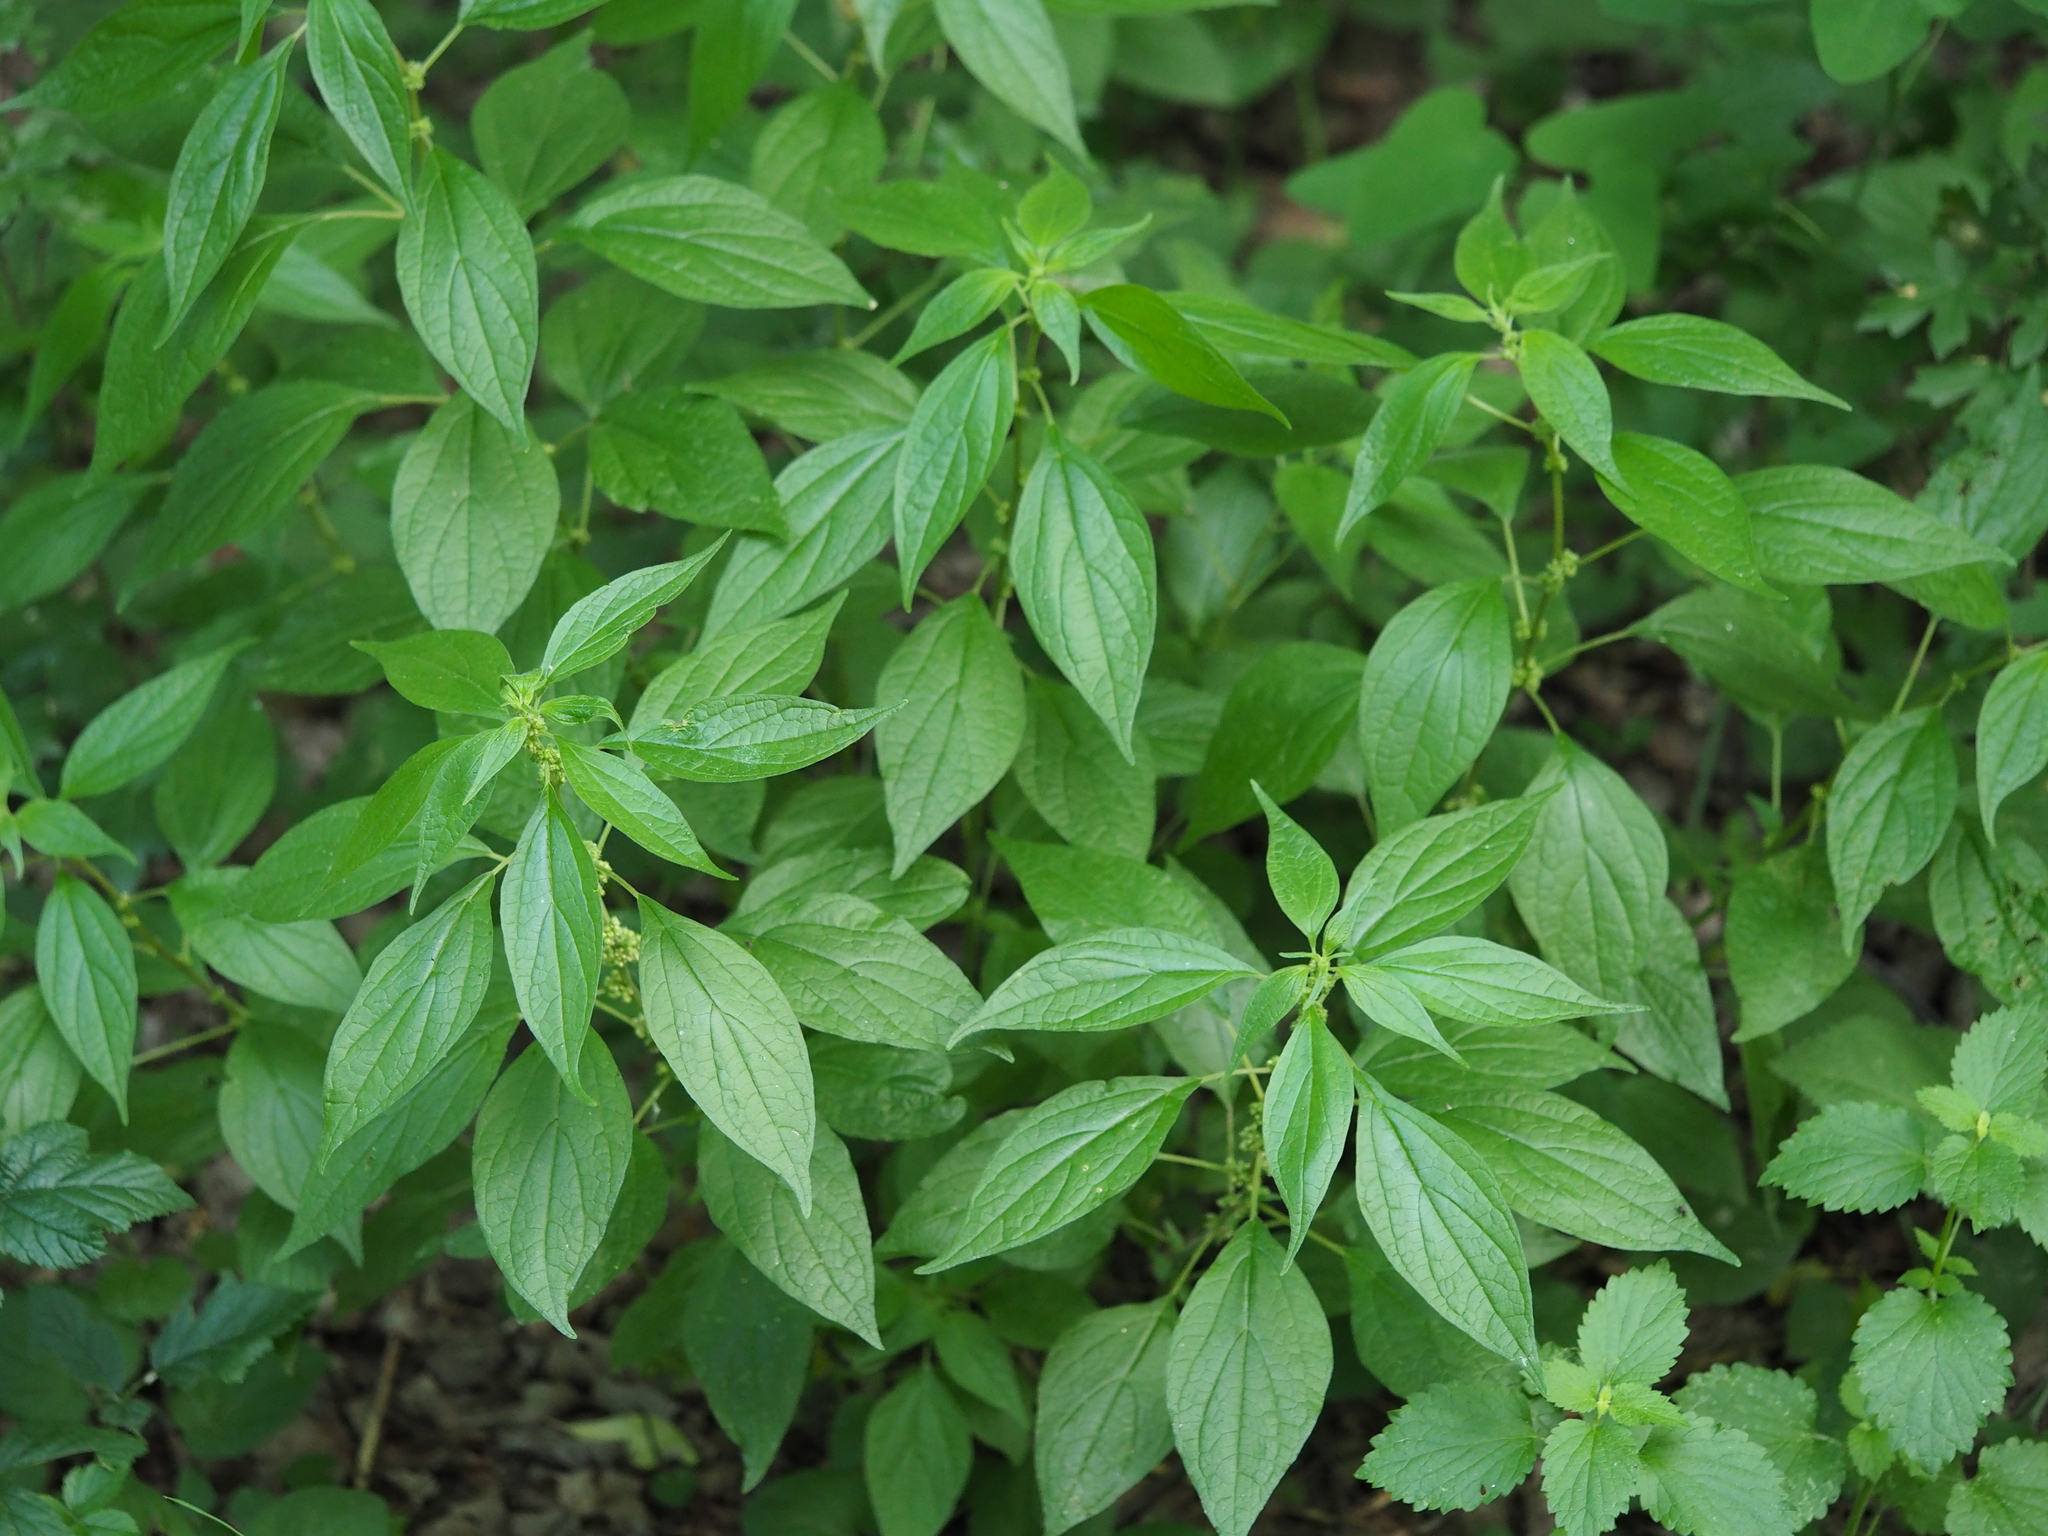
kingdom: Plantae
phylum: Tracheophyta
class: Magnoliopsida
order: Rosales
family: Urticaceae
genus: Parietaria
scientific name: Parietaria officinalis
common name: Eastern pellitory-of-the-wall
